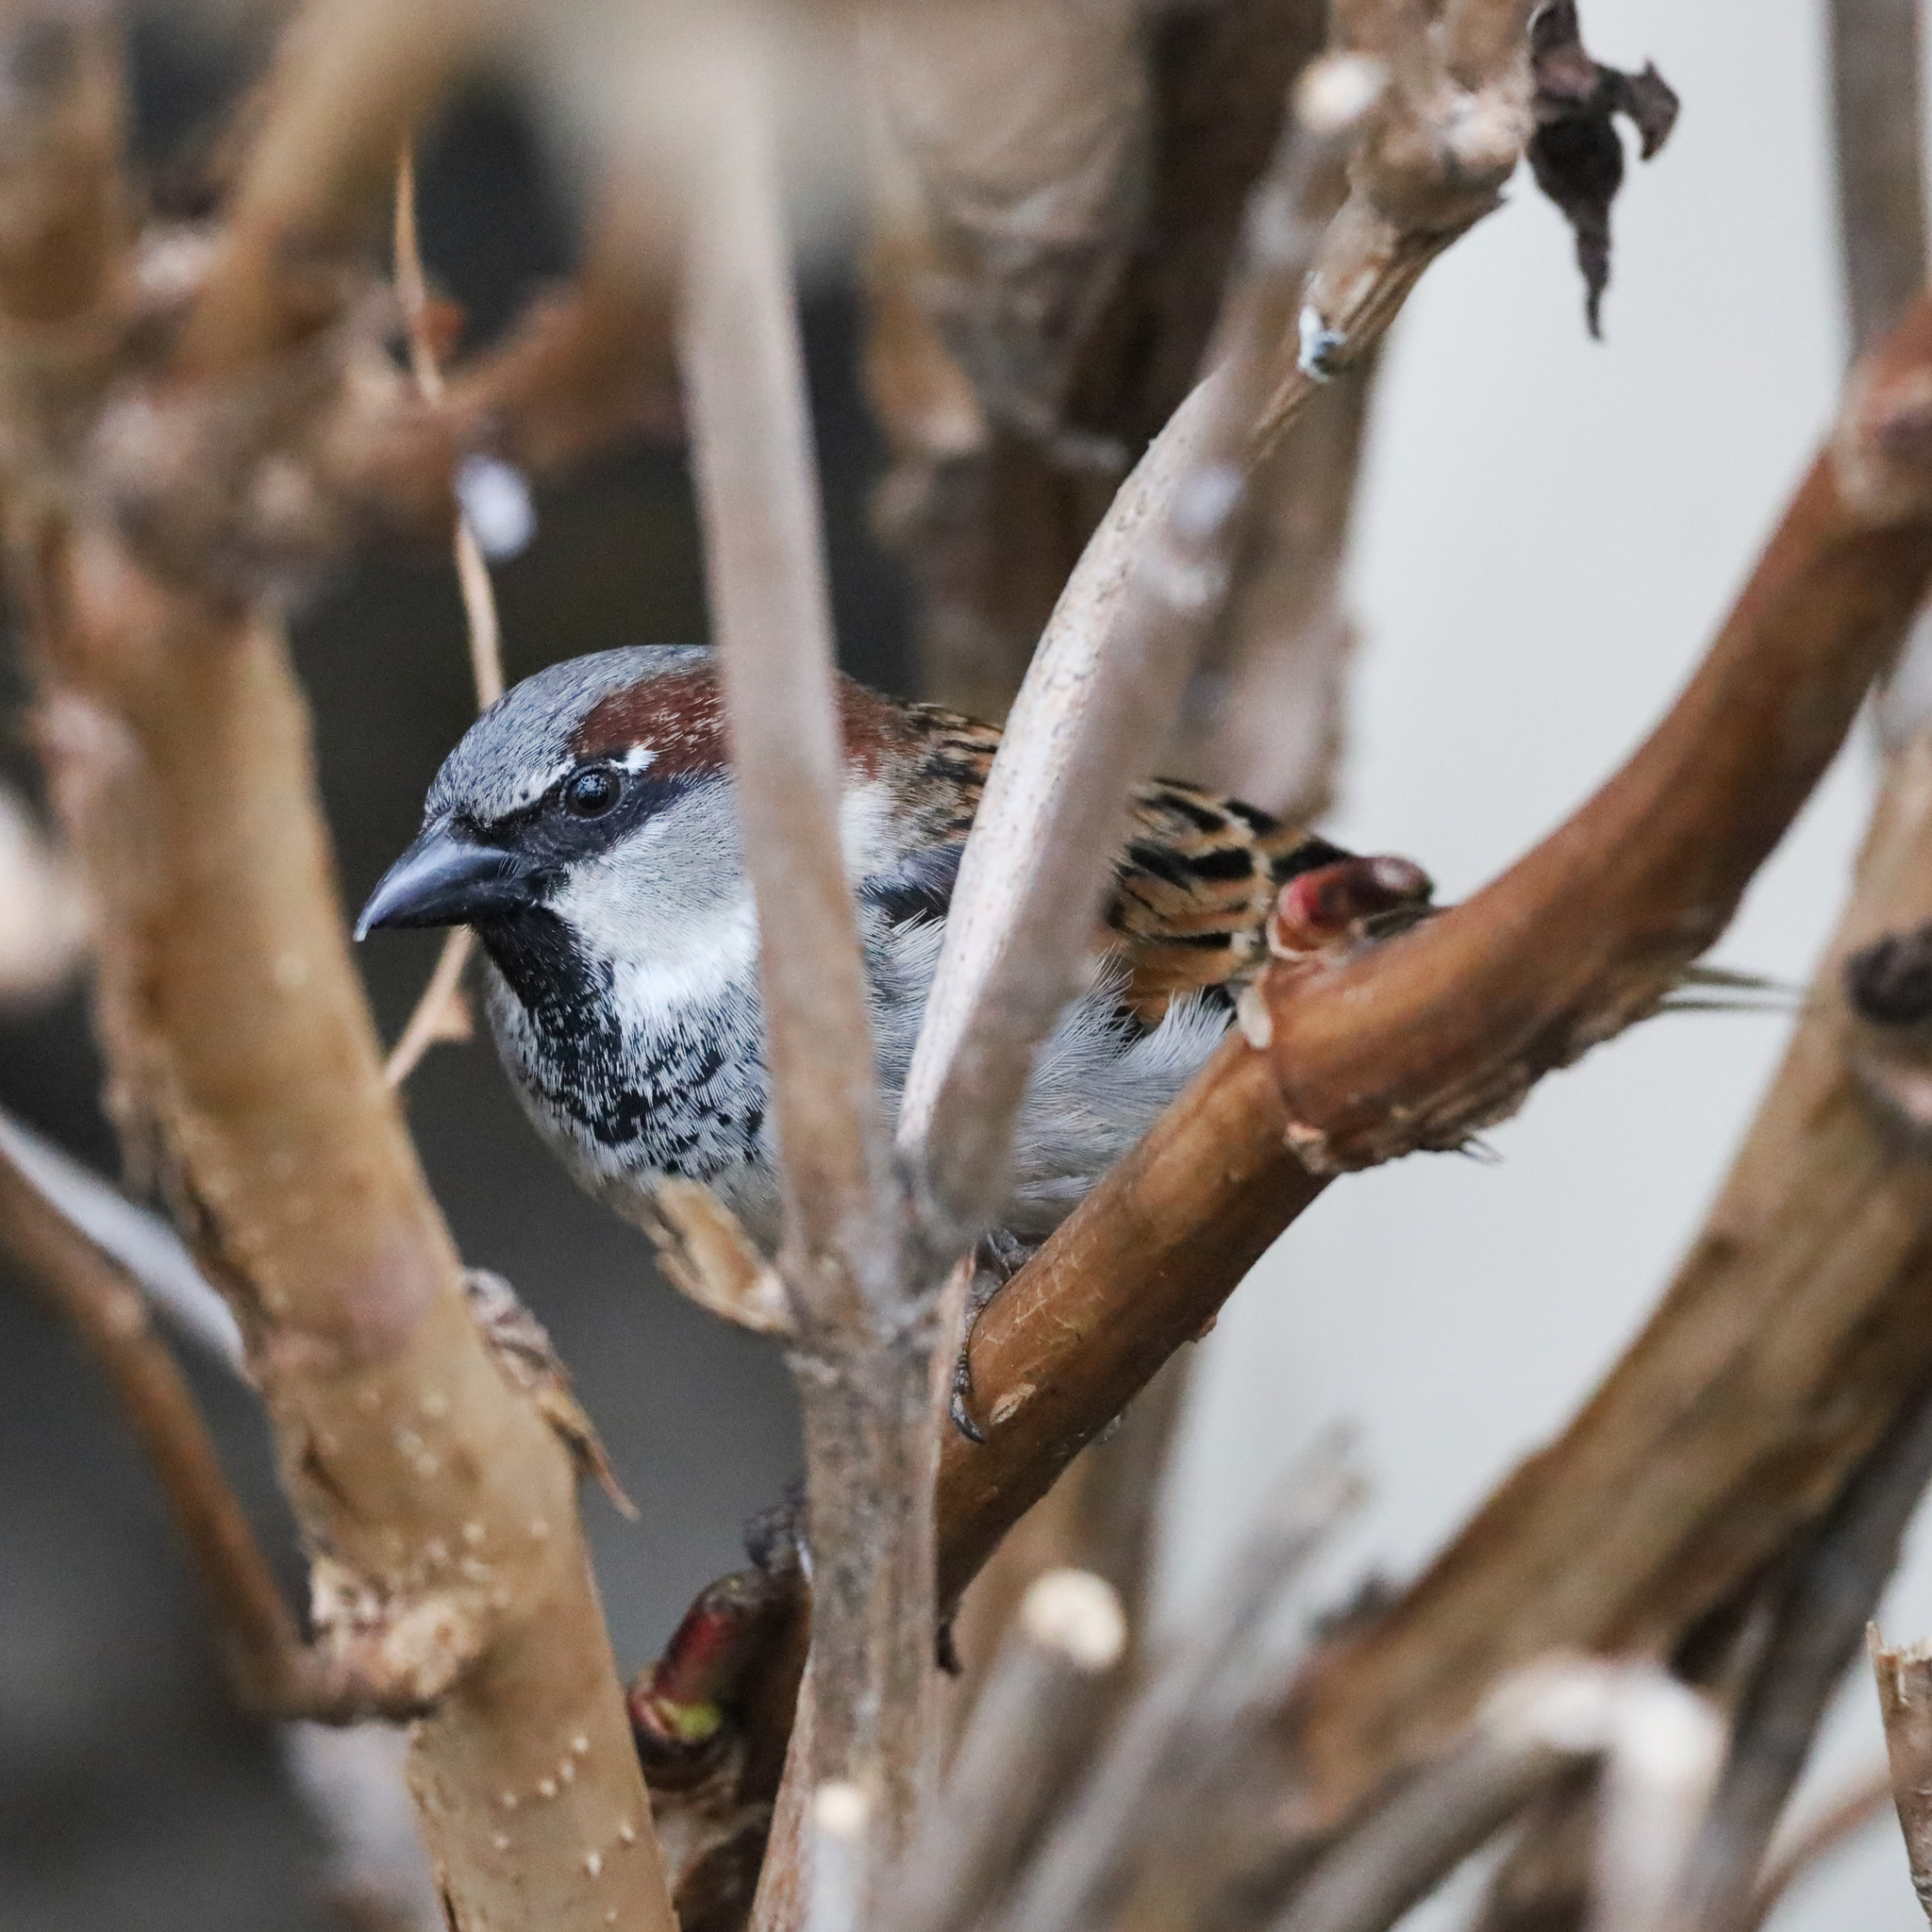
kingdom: Animalia
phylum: Chordata
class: Aves
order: Passeriformes
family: Passeridae
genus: Passer
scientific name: Passer domesticus
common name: House sparrow
